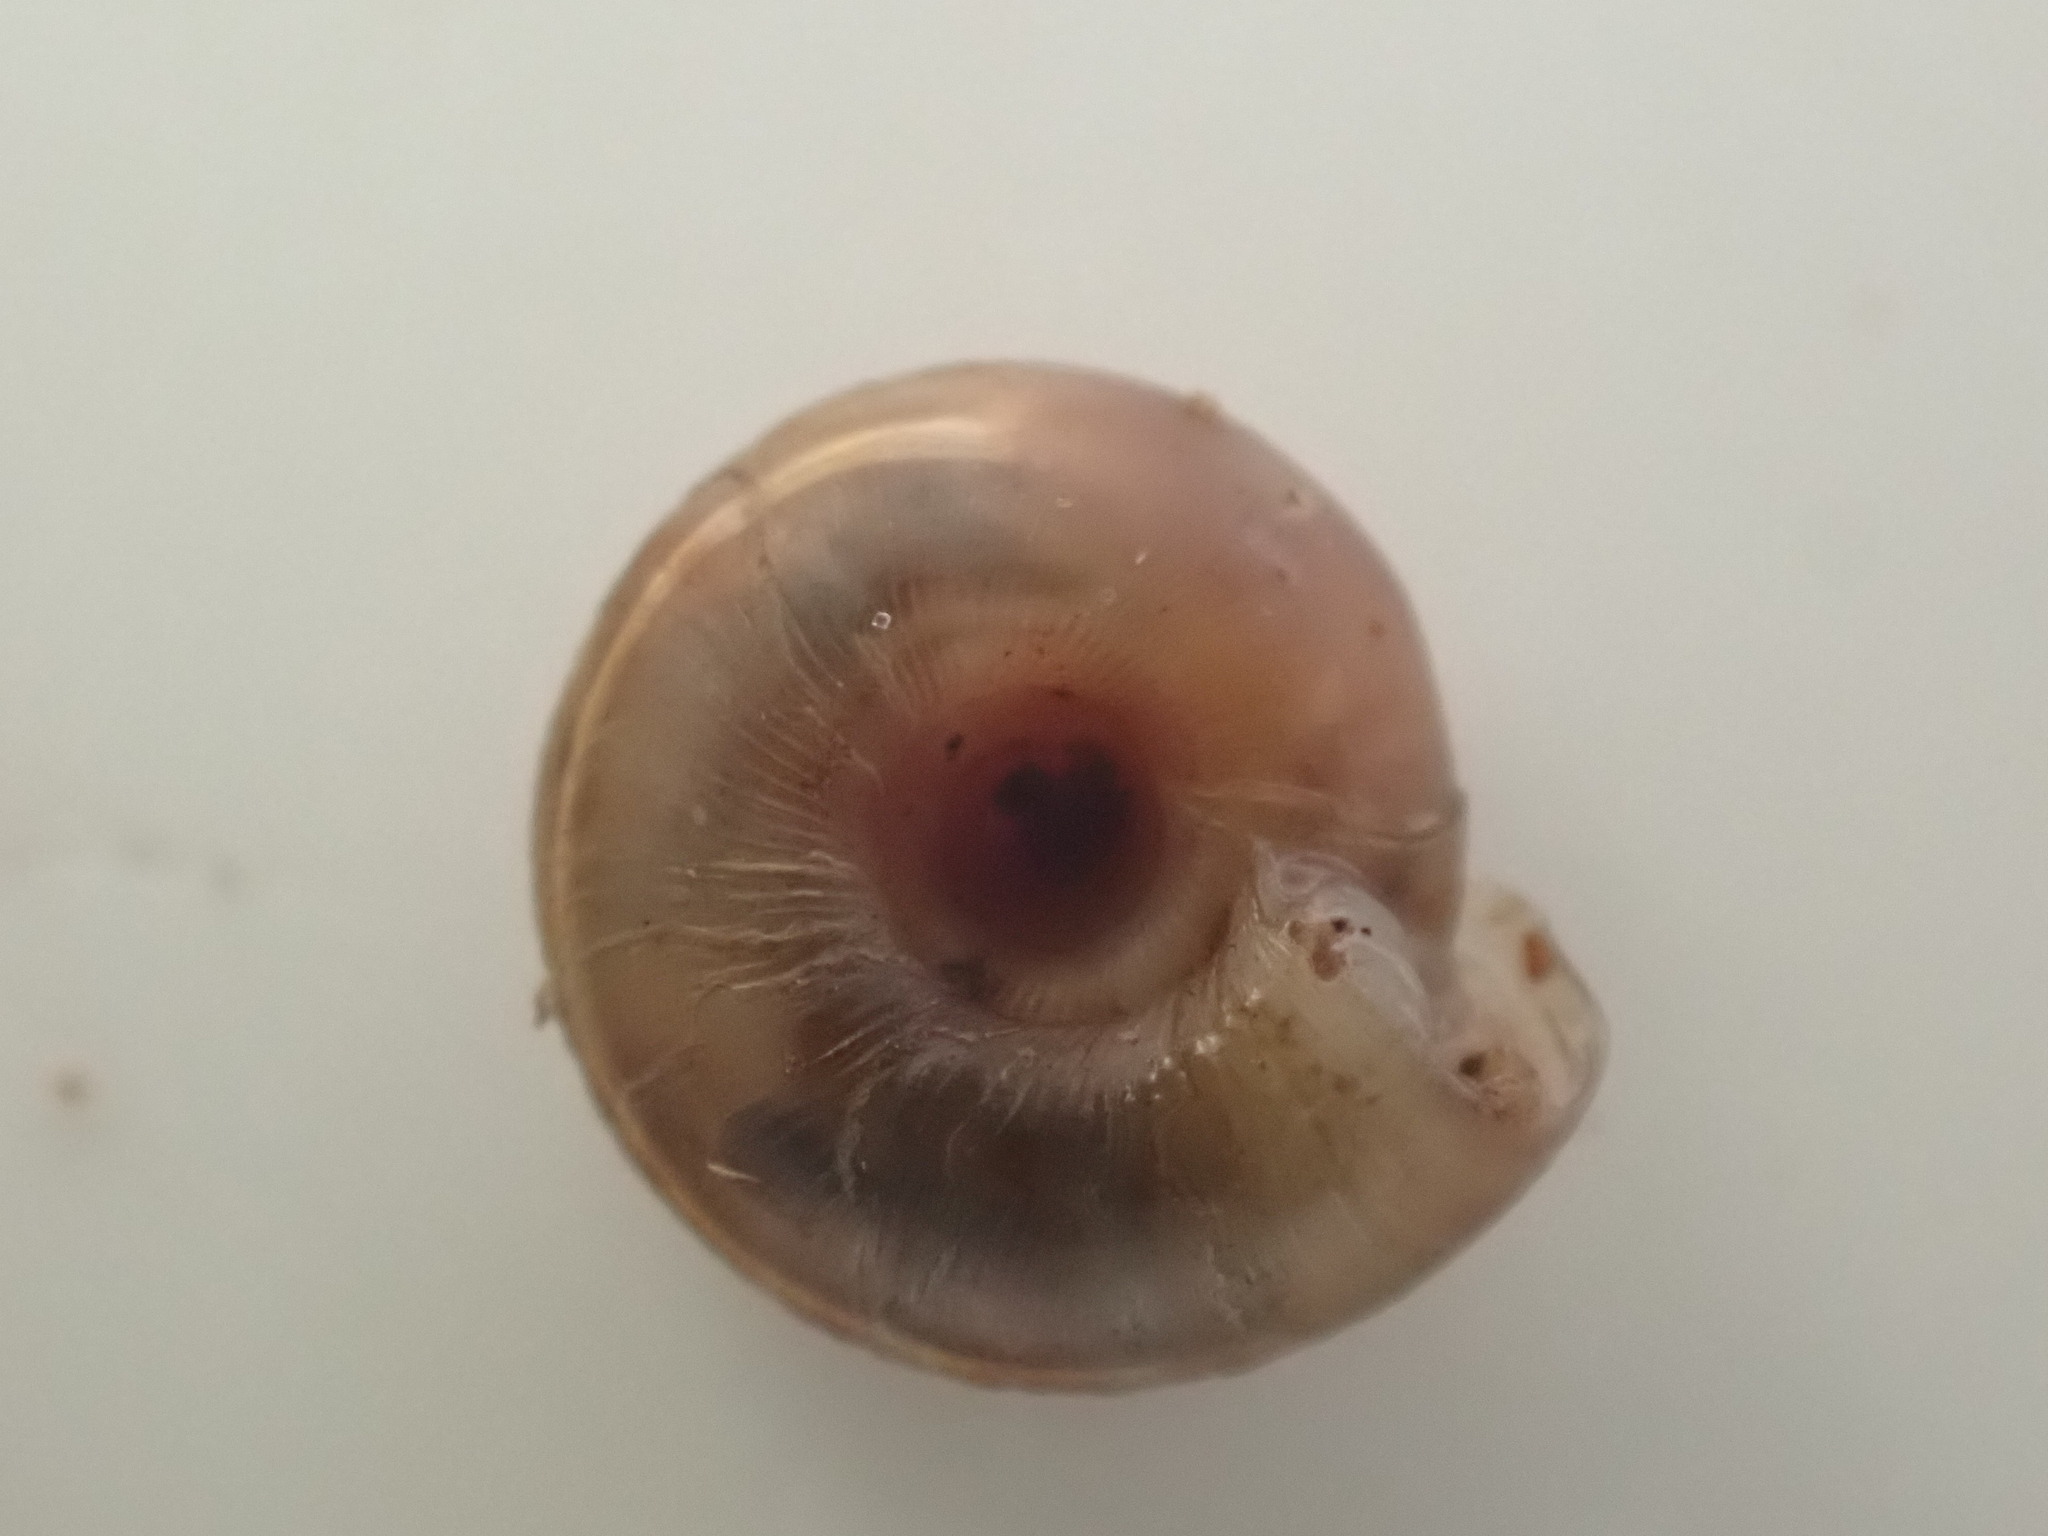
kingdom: Animalia
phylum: Mollusca
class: Gastropoda
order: Stylommatophora
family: Discidae
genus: Discus
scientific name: Discus rotundatus
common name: Rounded snail
